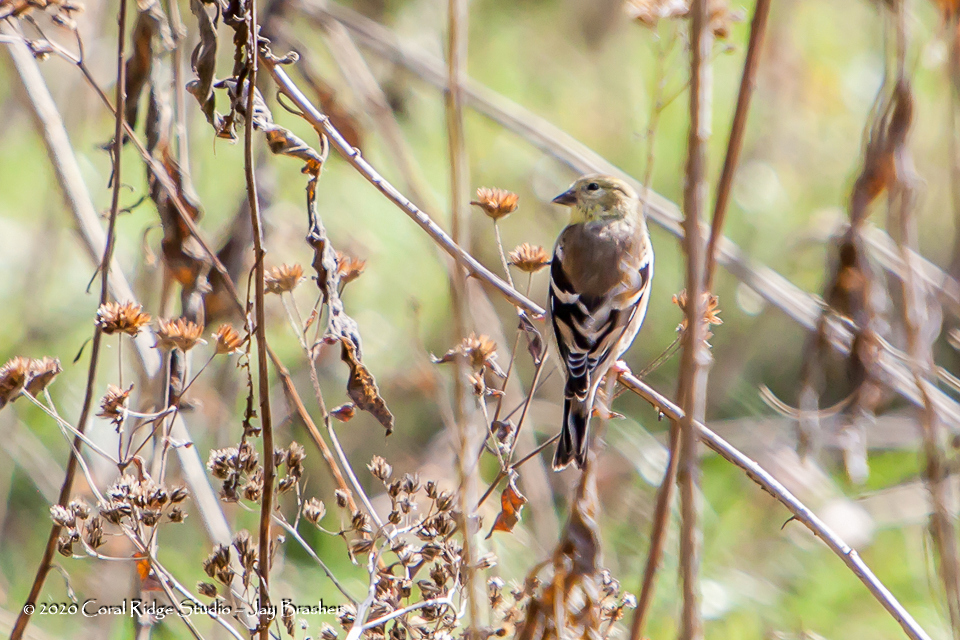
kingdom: Animalia
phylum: Chordata
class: Aves
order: Passeriformes
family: Fringillidae
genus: Spinus
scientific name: Spinus tristis
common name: American goldfinch
